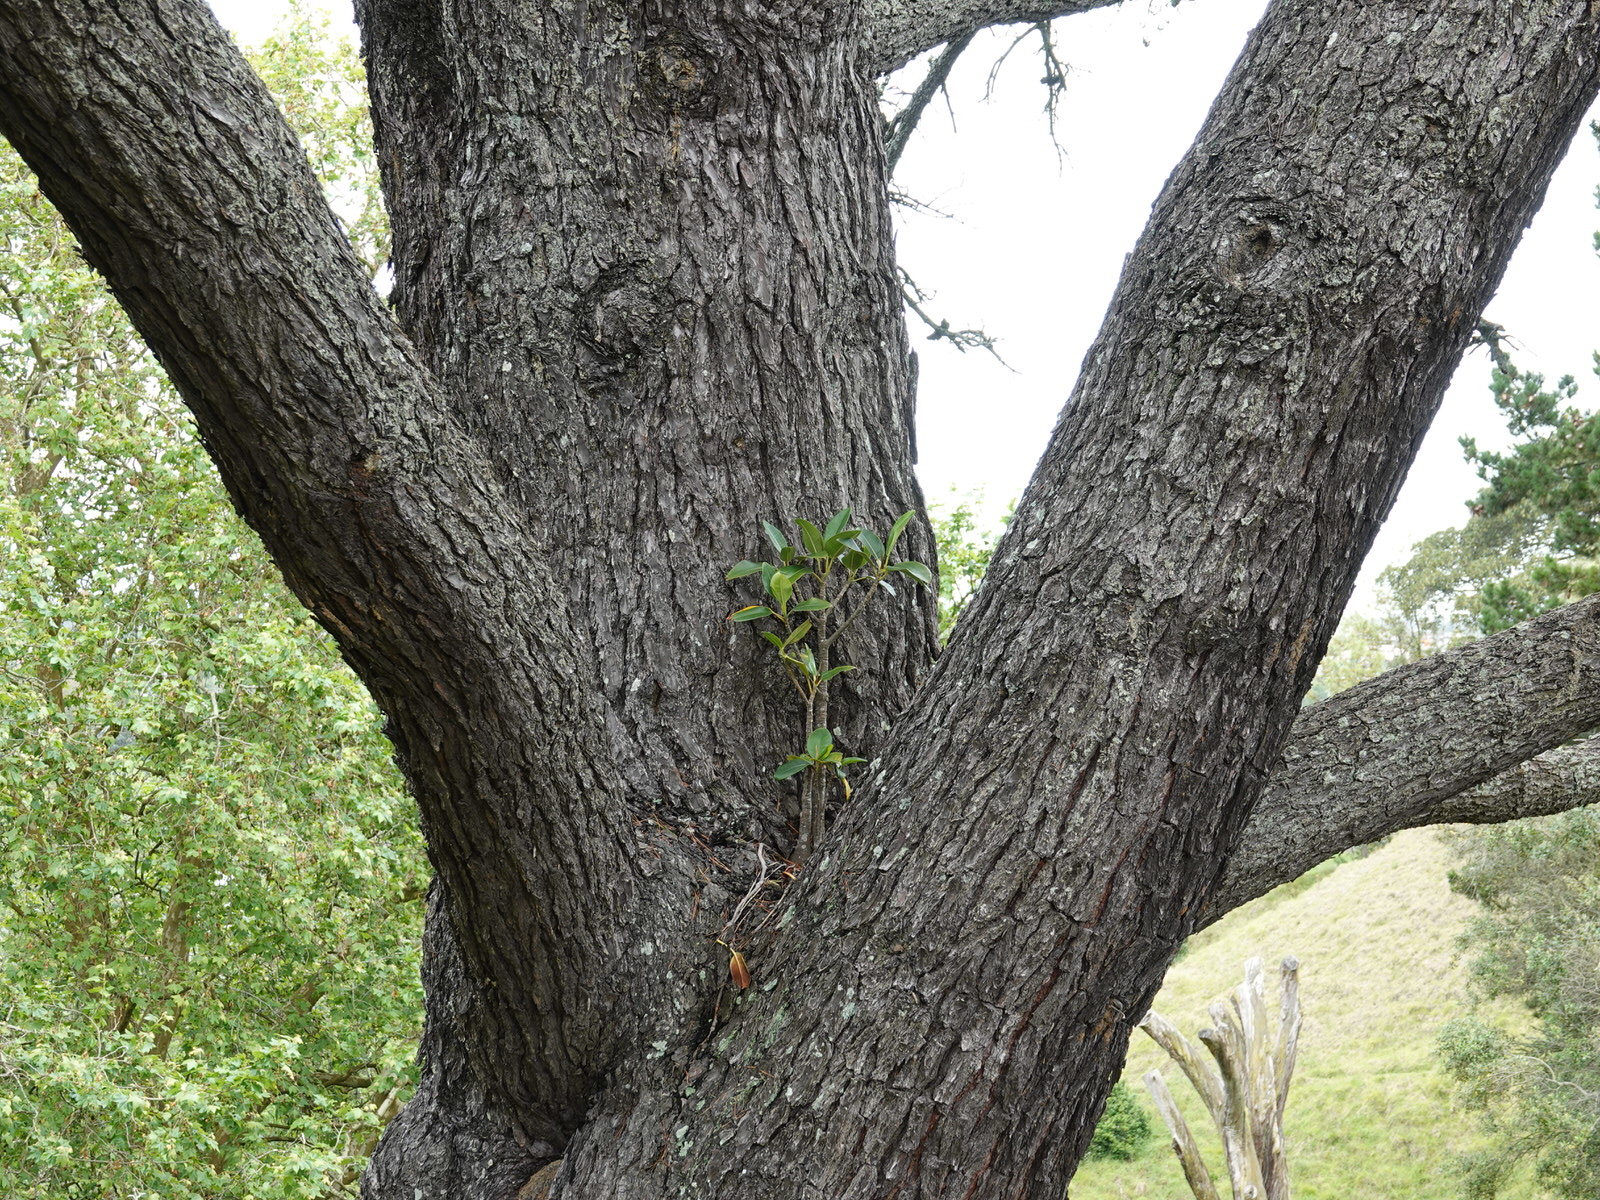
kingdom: Plantae
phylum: Tracheophyta
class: Magnoliopsida
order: Rosales
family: Moraceae
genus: Ficus
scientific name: Ficus macrophylla
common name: Moreton bay fig
